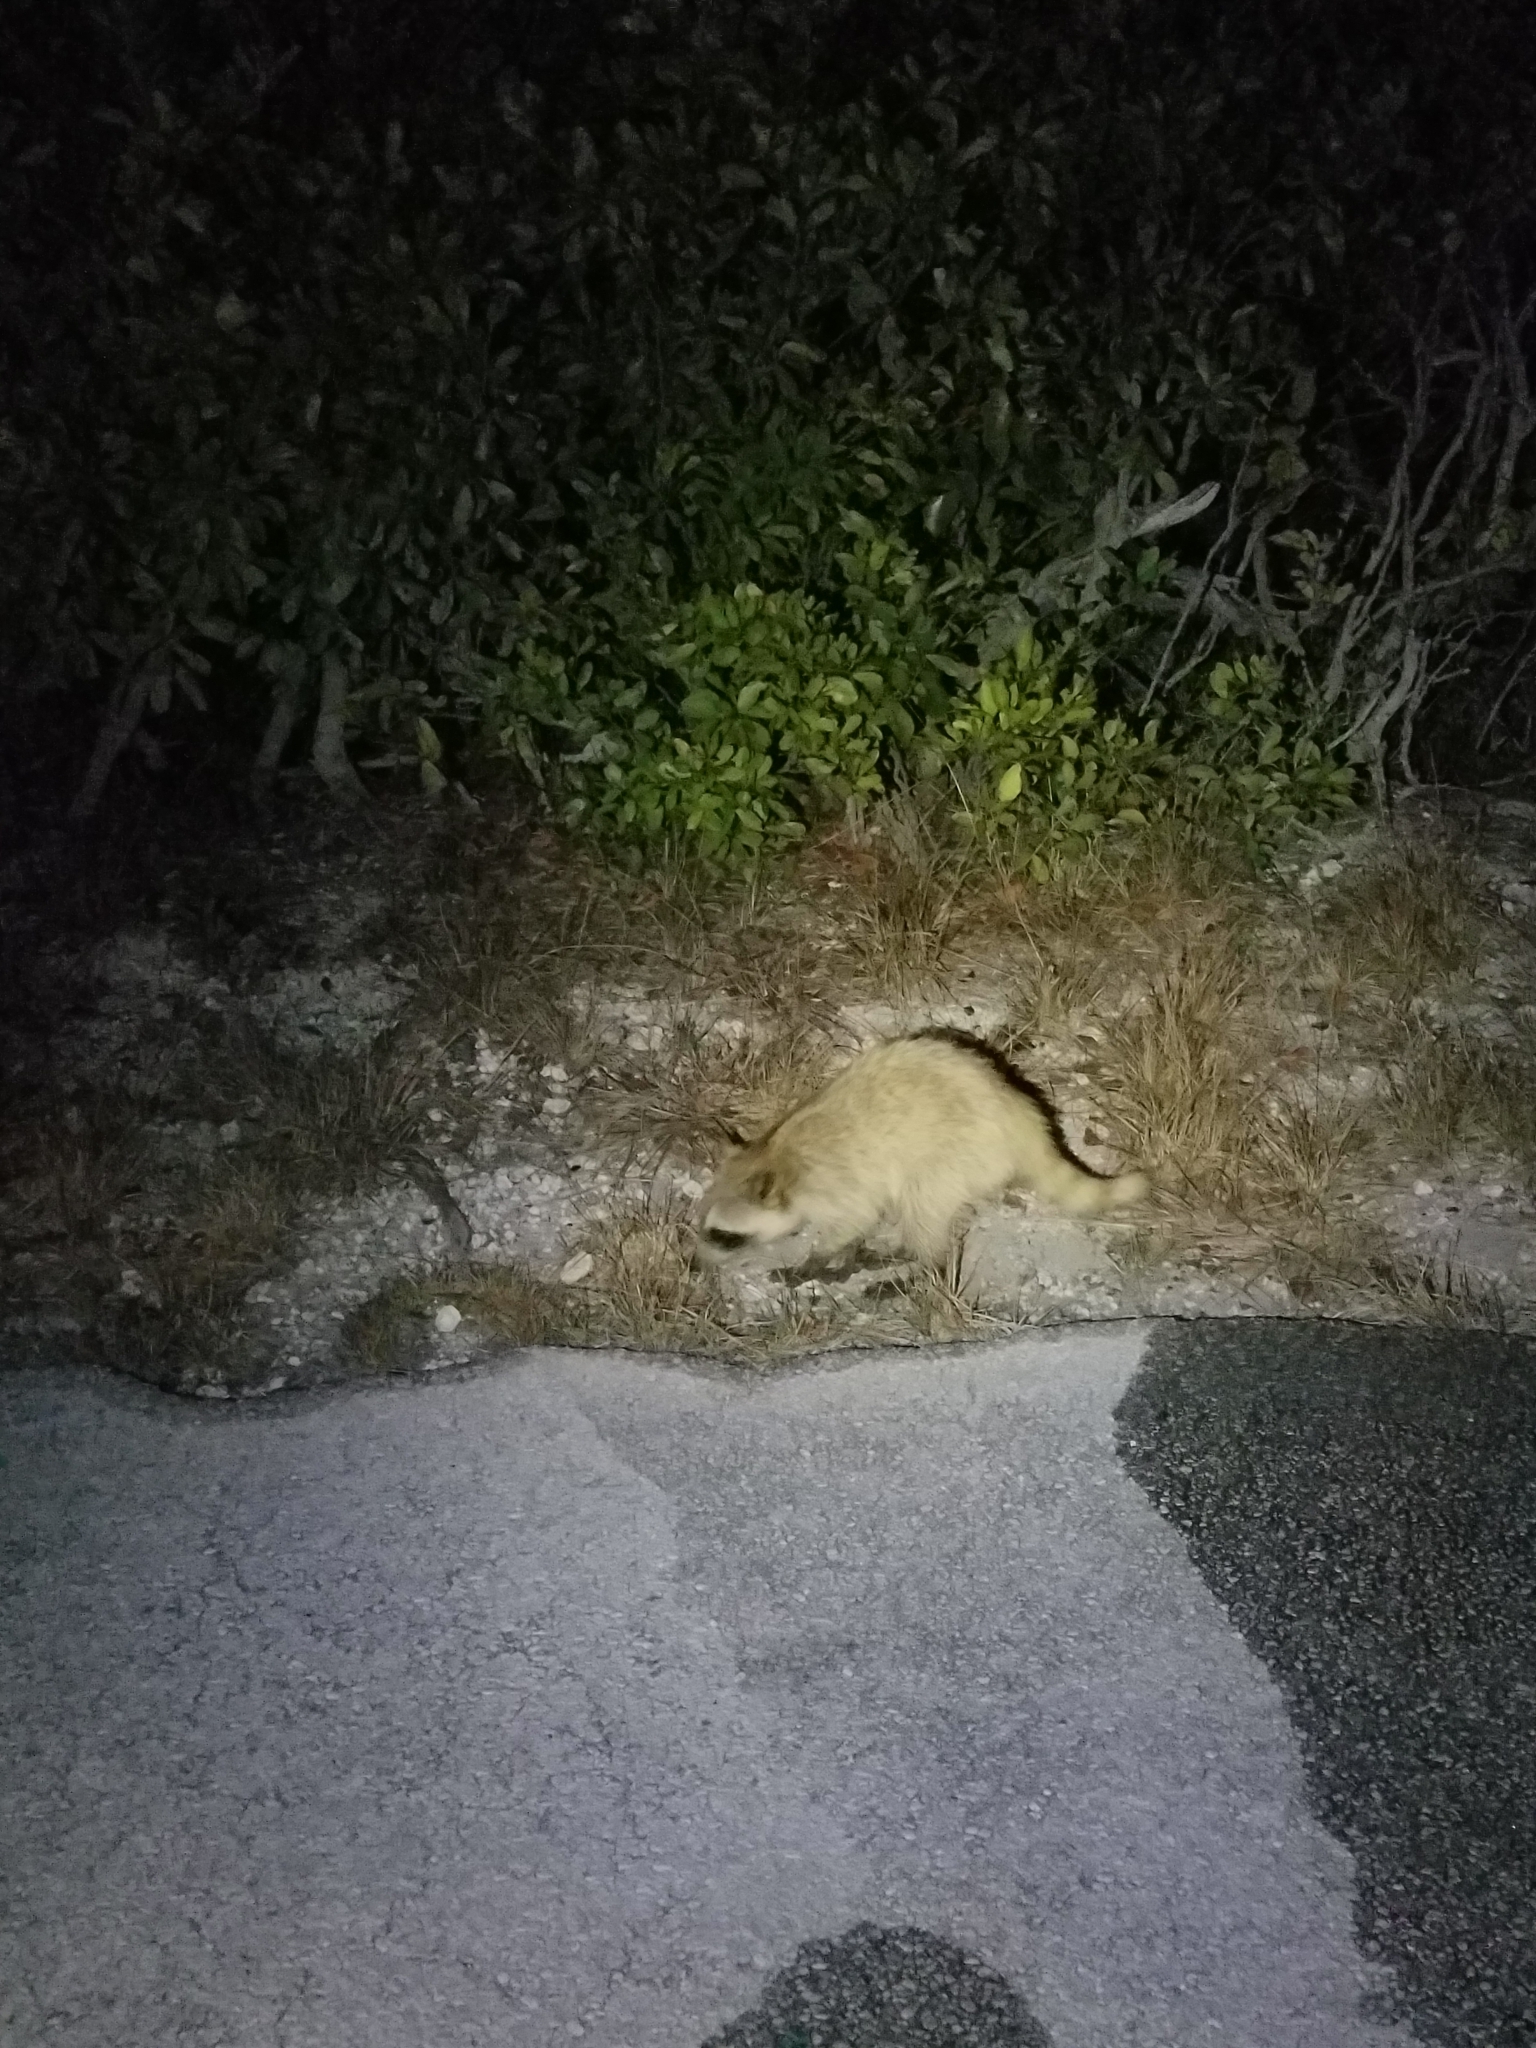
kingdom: Animalia
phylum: Chordata
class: Mammalia
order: Carnivora
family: Procyonidae
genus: Procyon
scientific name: Procyon lotor
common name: Raccoon
